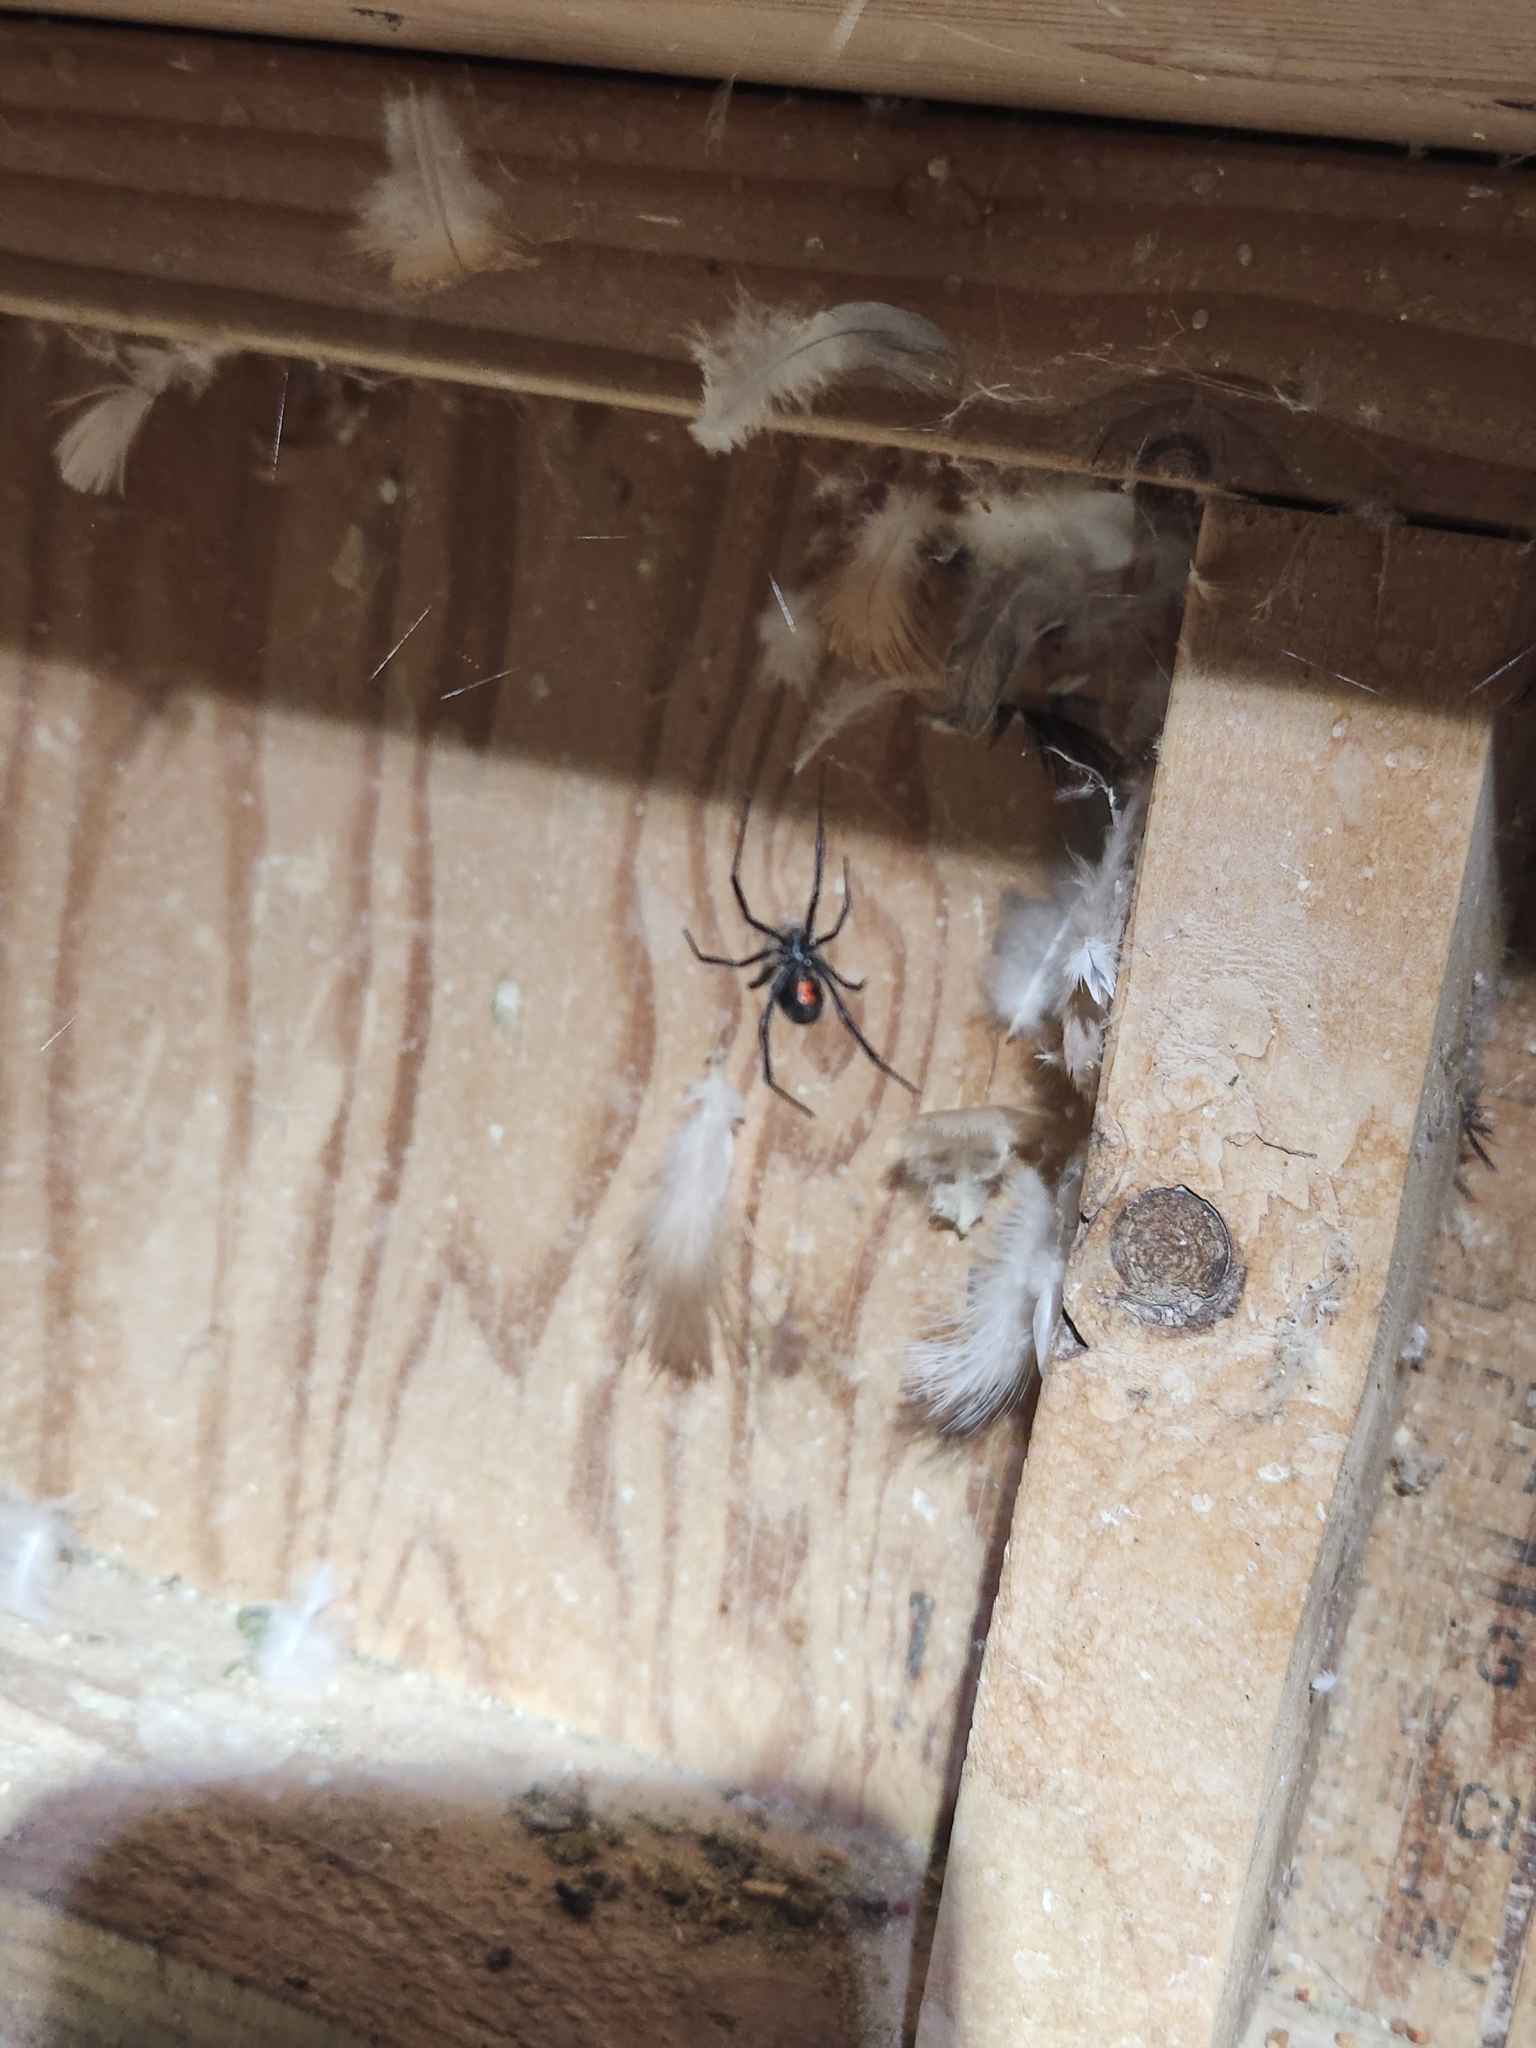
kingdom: Animalia
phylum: Arthropoda
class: Arachnida
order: Araneae
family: Theridiidae
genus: Latrodectus
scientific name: Latrodectus hesperus
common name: Western black widow
